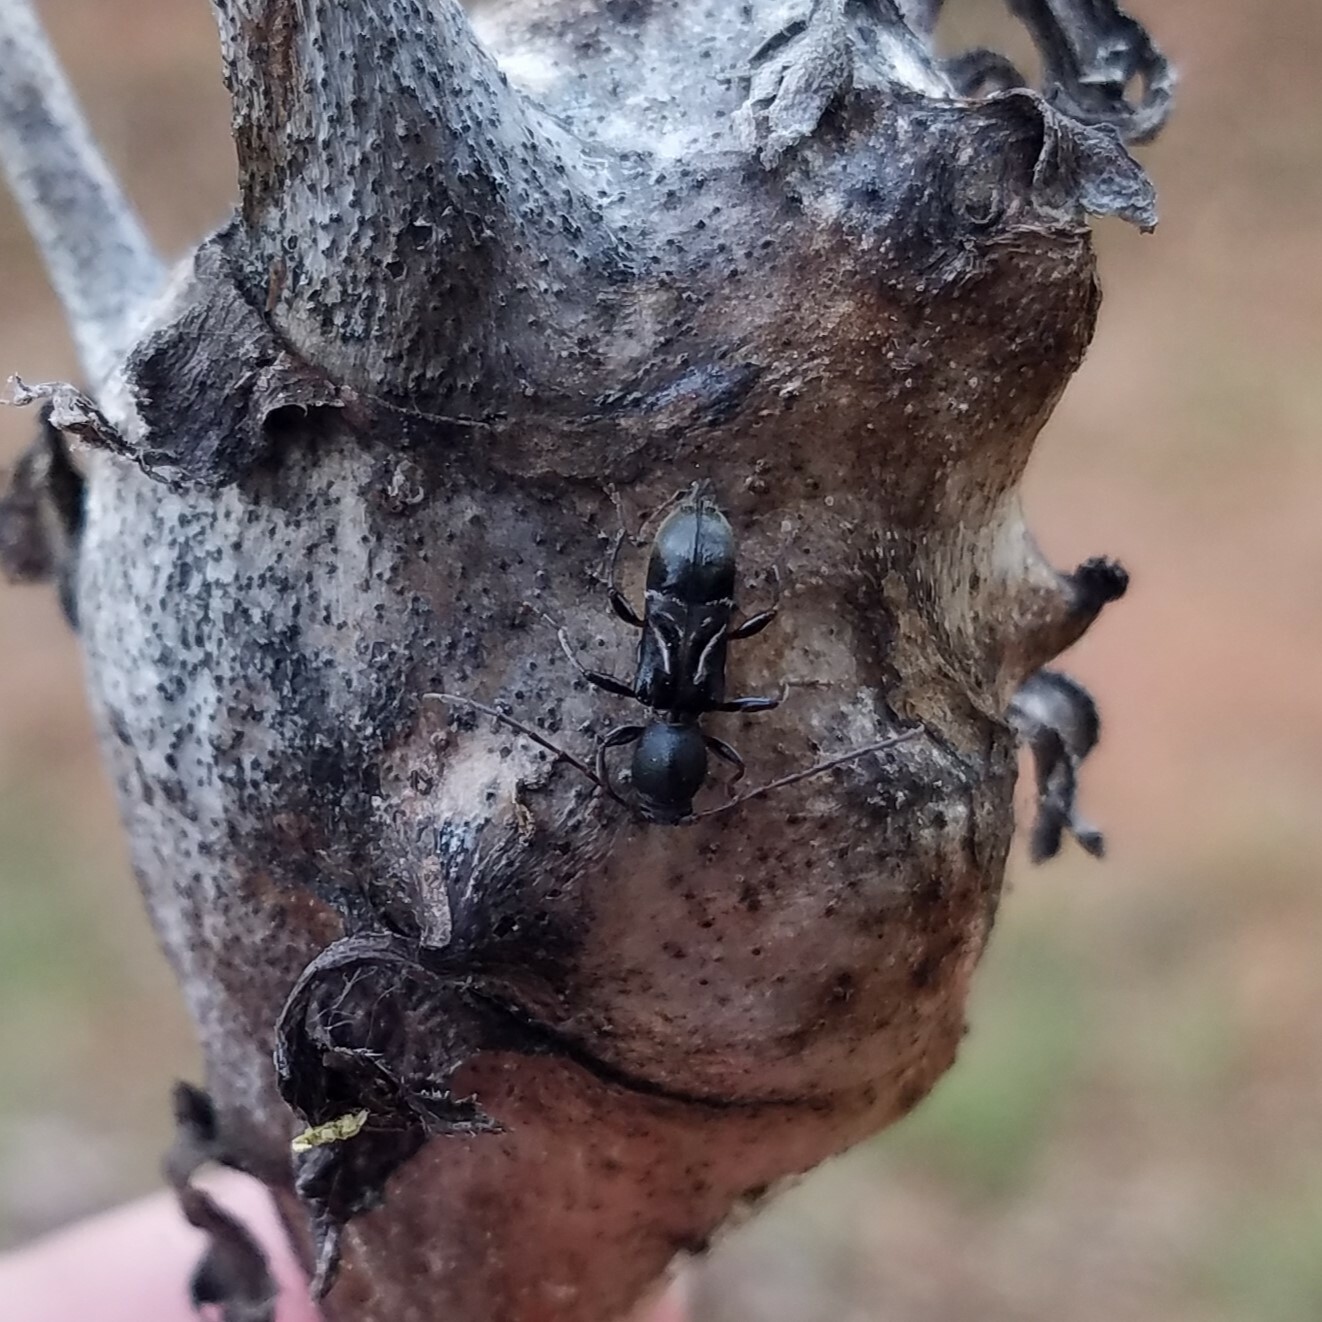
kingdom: Animalia
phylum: Arthropoda
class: Insecta
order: Coleoptera
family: Cerambycidae
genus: Cyrtophorus
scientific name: Cyrtophorus verrucosus
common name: Ant-like longhorn beetle
